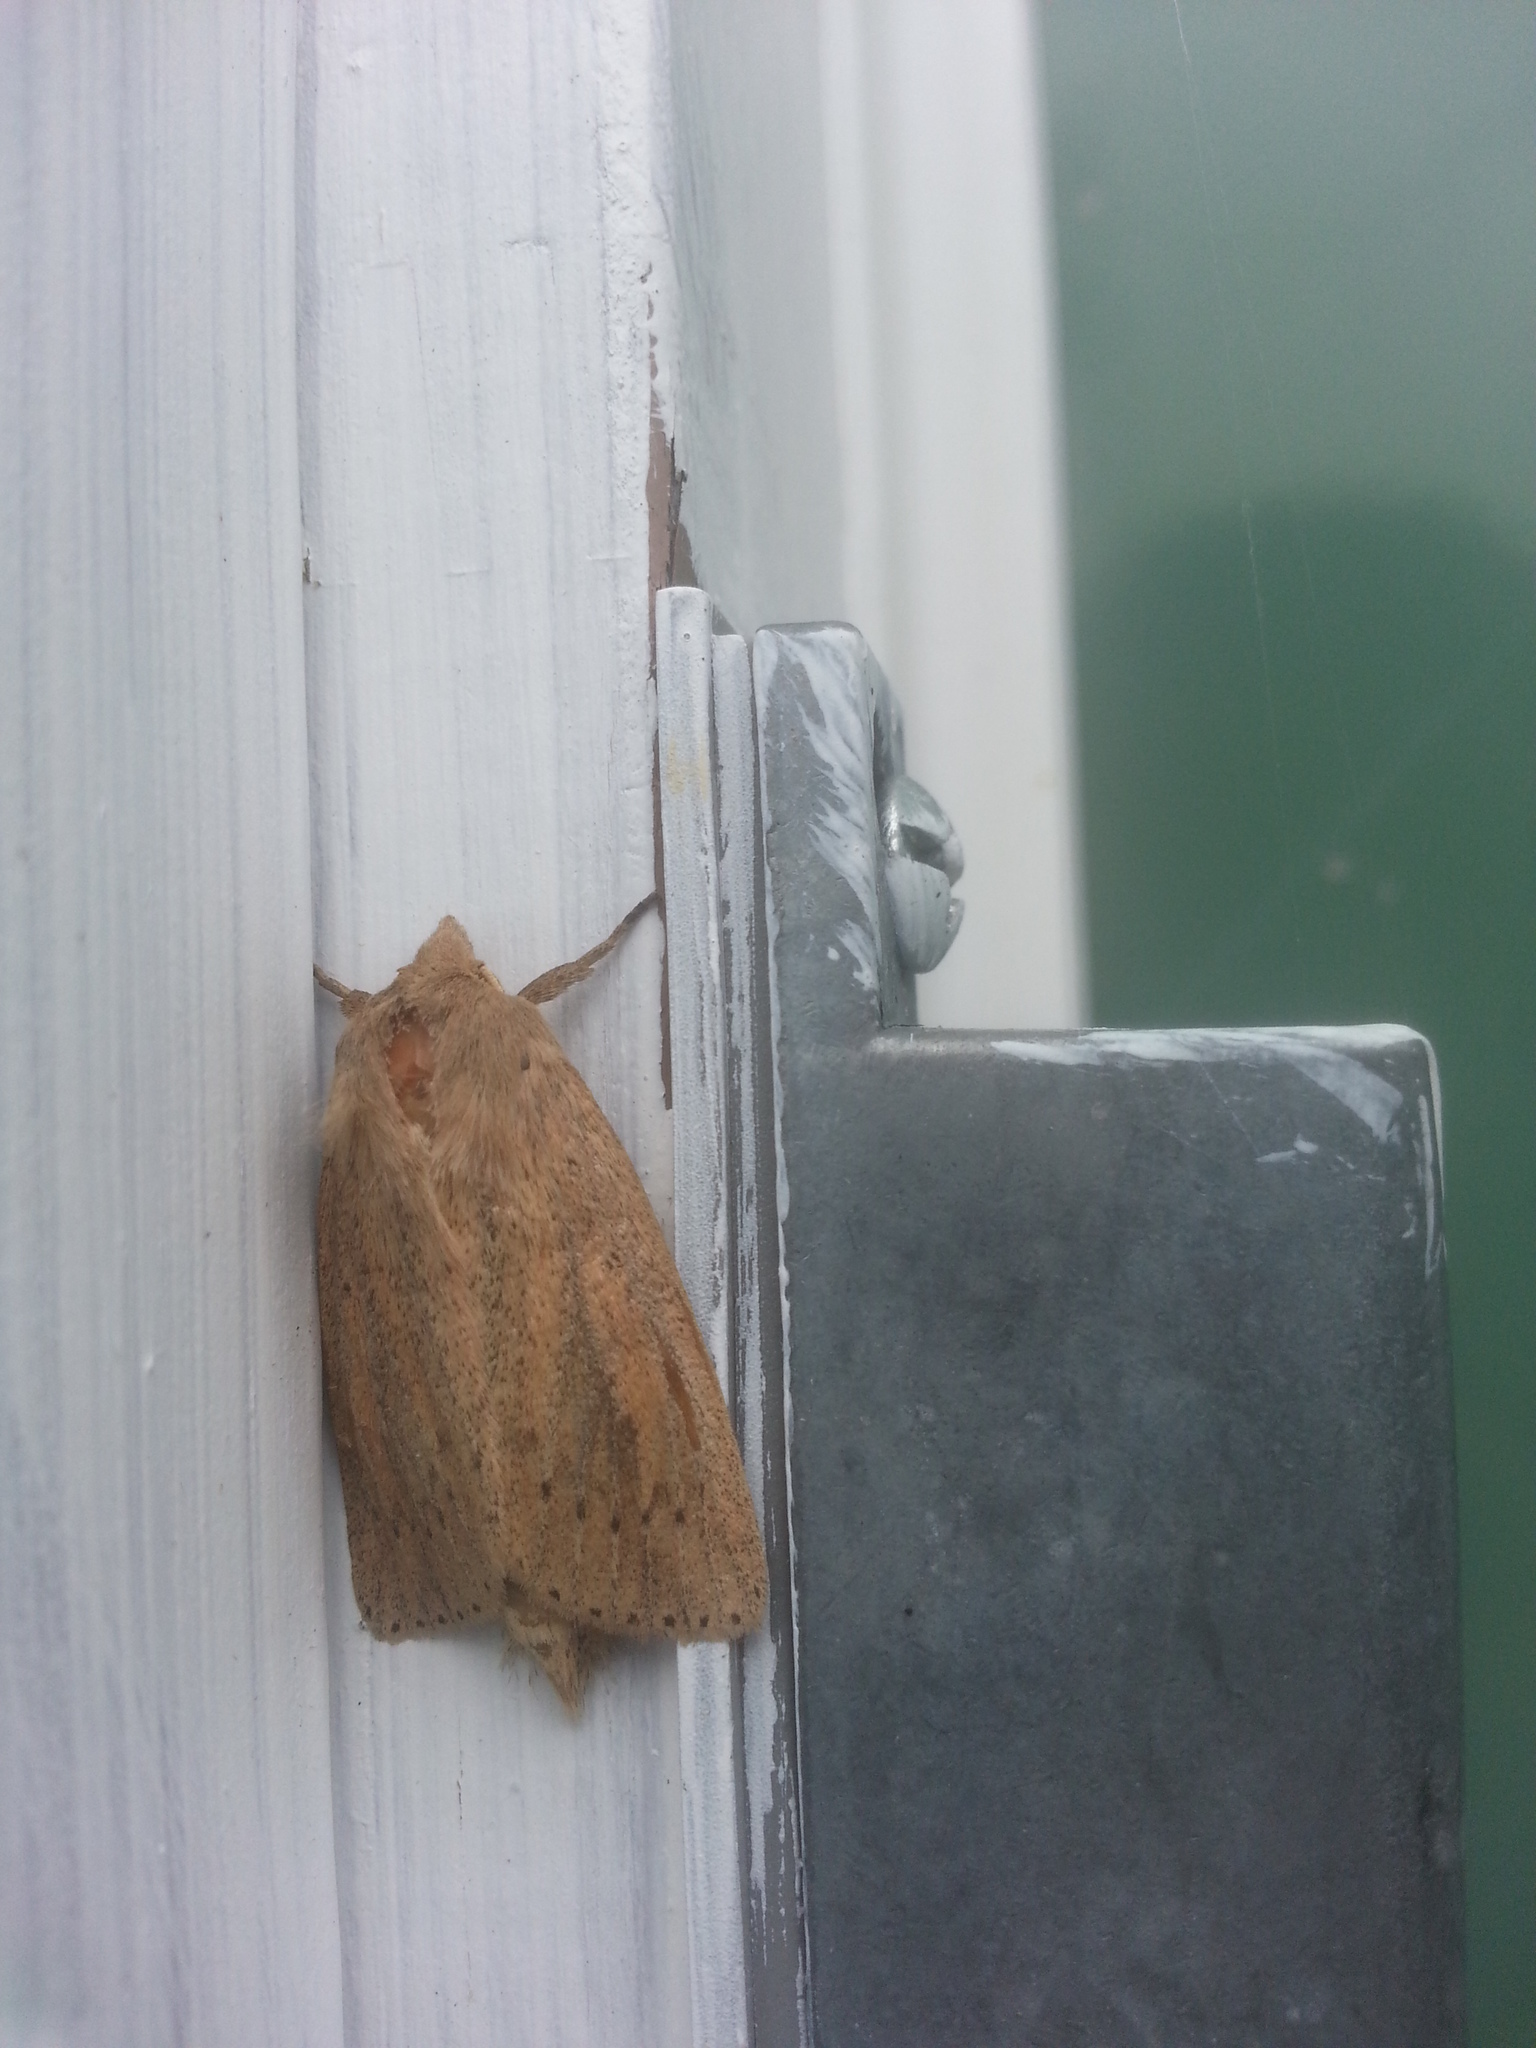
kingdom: Animalia
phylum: Arthropoda
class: Insecta
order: Lepidoptera
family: Noctuidae
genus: Globia
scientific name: Globia oblonga
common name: Oblong sedge borer moth
